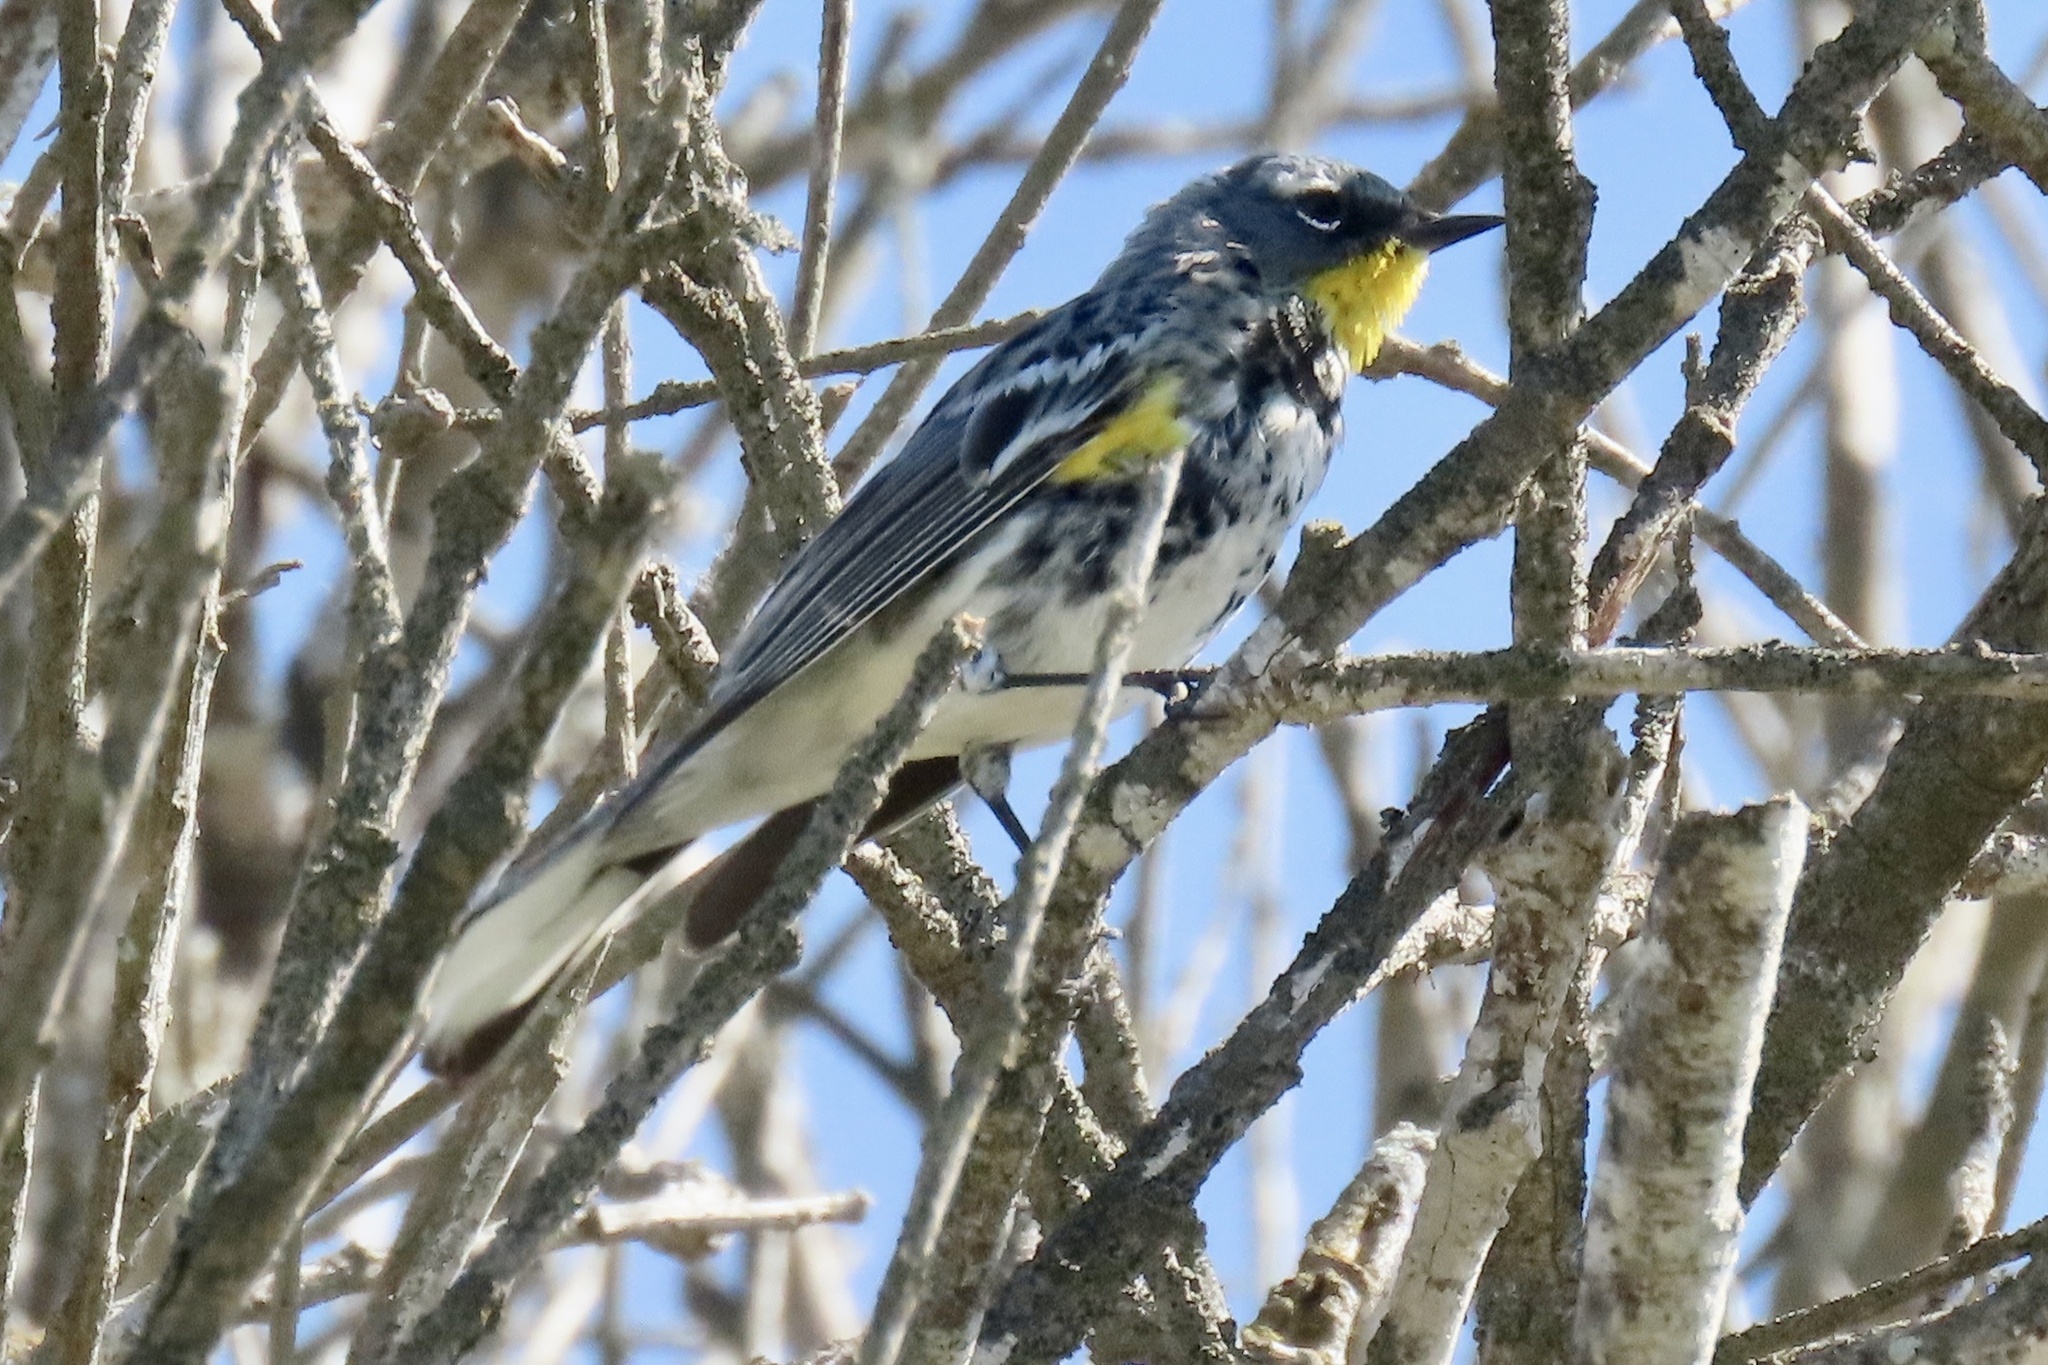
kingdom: Animalia
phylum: Chordata
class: Aves
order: Passeriformes
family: Parulidae
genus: Setophaga
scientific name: Setophaga coronata
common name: Myrtle warbler
